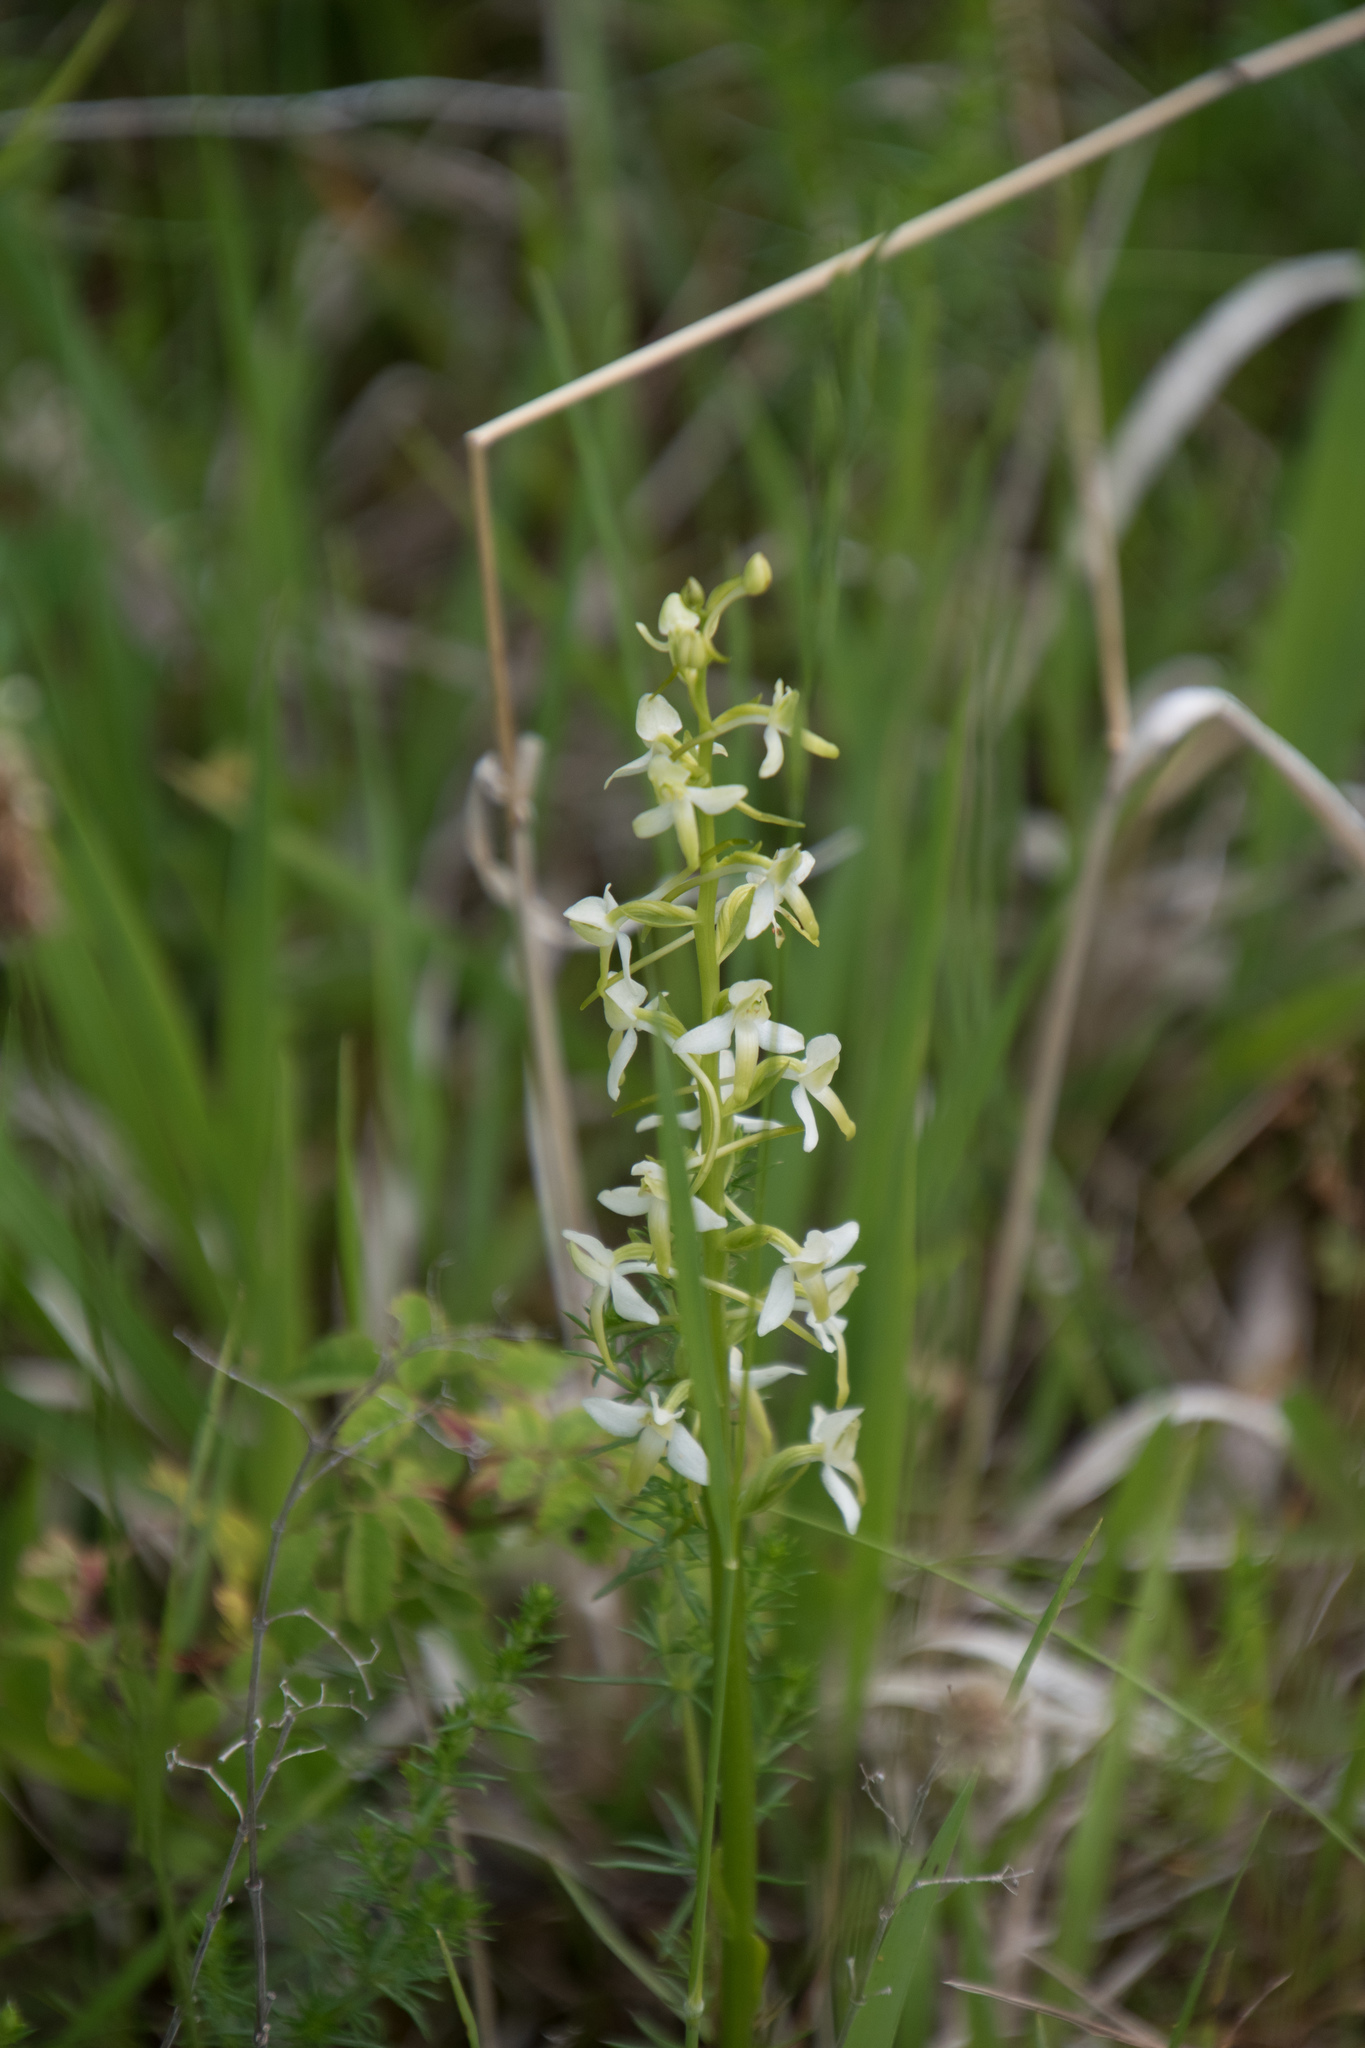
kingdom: Plantae
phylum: Tracheophyta
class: Liliopsida
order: Asparagales
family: Orchidaceae
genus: Platanthera
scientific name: Platanthera bifolia
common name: Lesser butterfly-orchid
